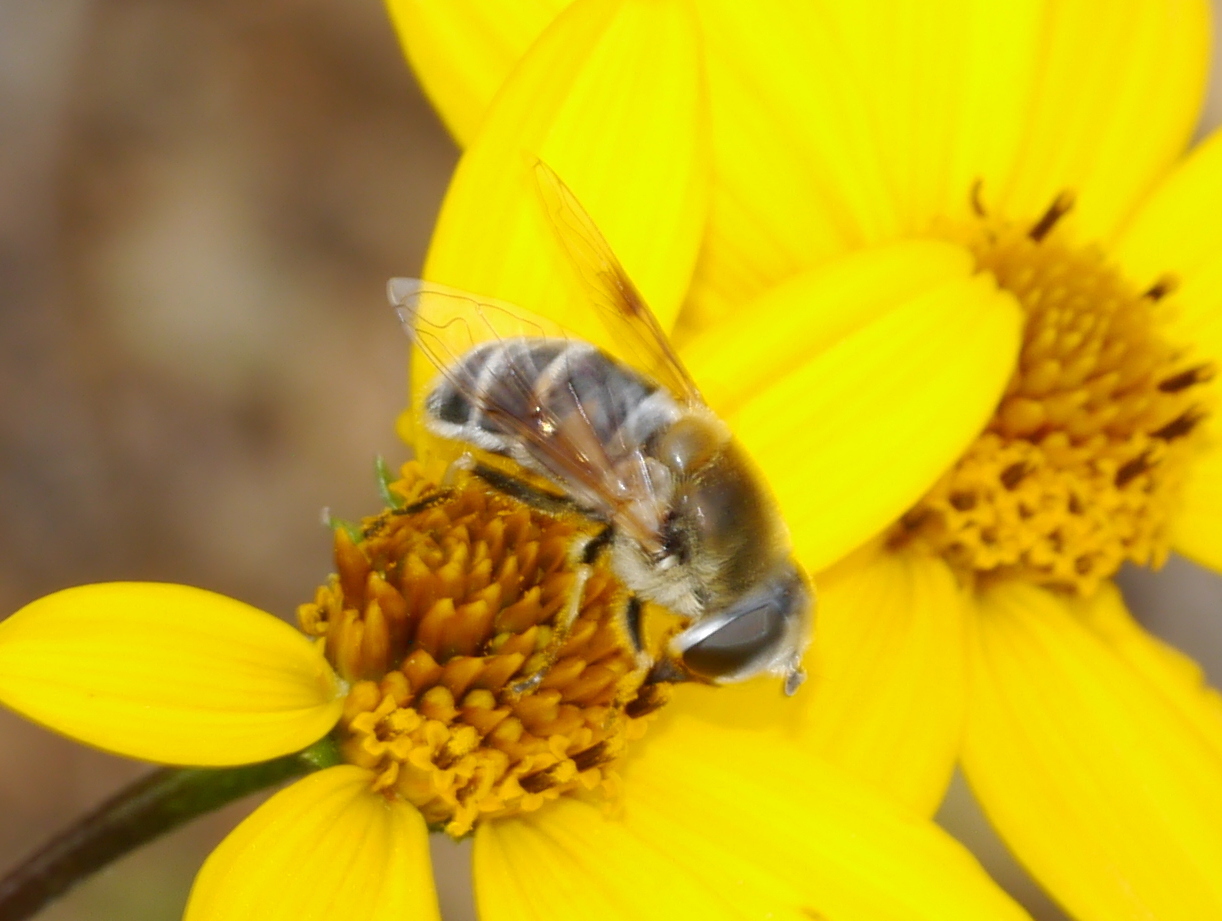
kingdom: Animalia
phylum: Arthropoda
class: Insecta
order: Diptera
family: Syrphidae
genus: Eristalis
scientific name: Eristalis stipator
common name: Yellow-shouldered drone fly
